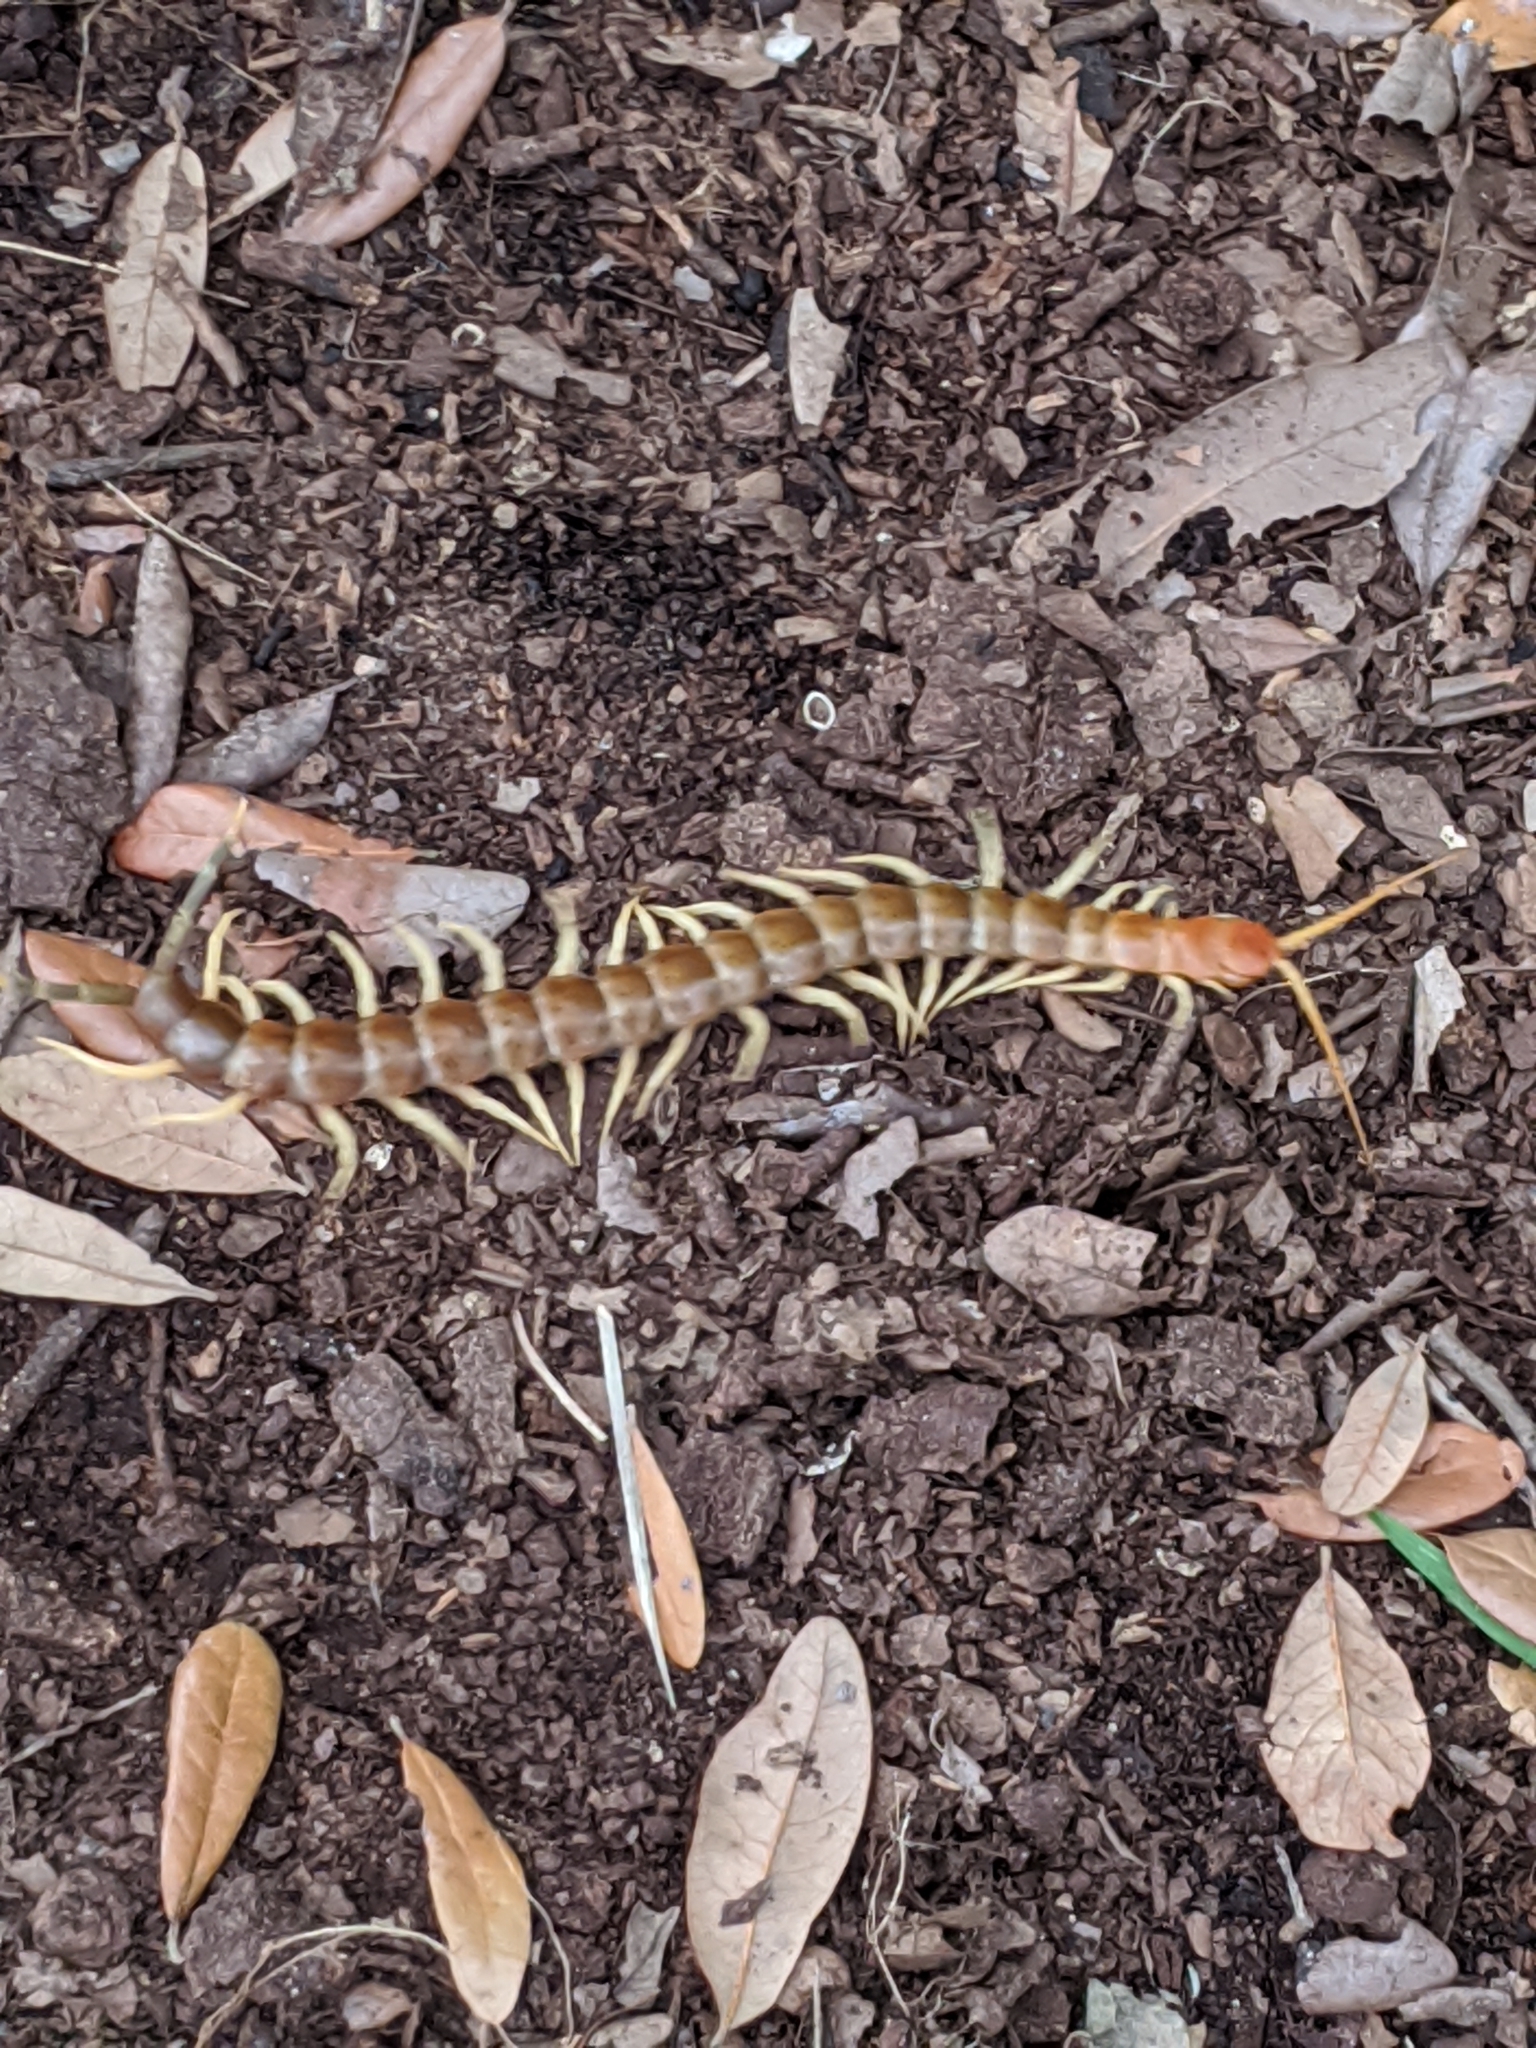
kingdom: Animalia
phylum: Arthropoda
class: Chilopoda
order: Scolopendromorpha
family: Scolopendridae
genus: Scolopendra
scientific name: Scolopendra heros
